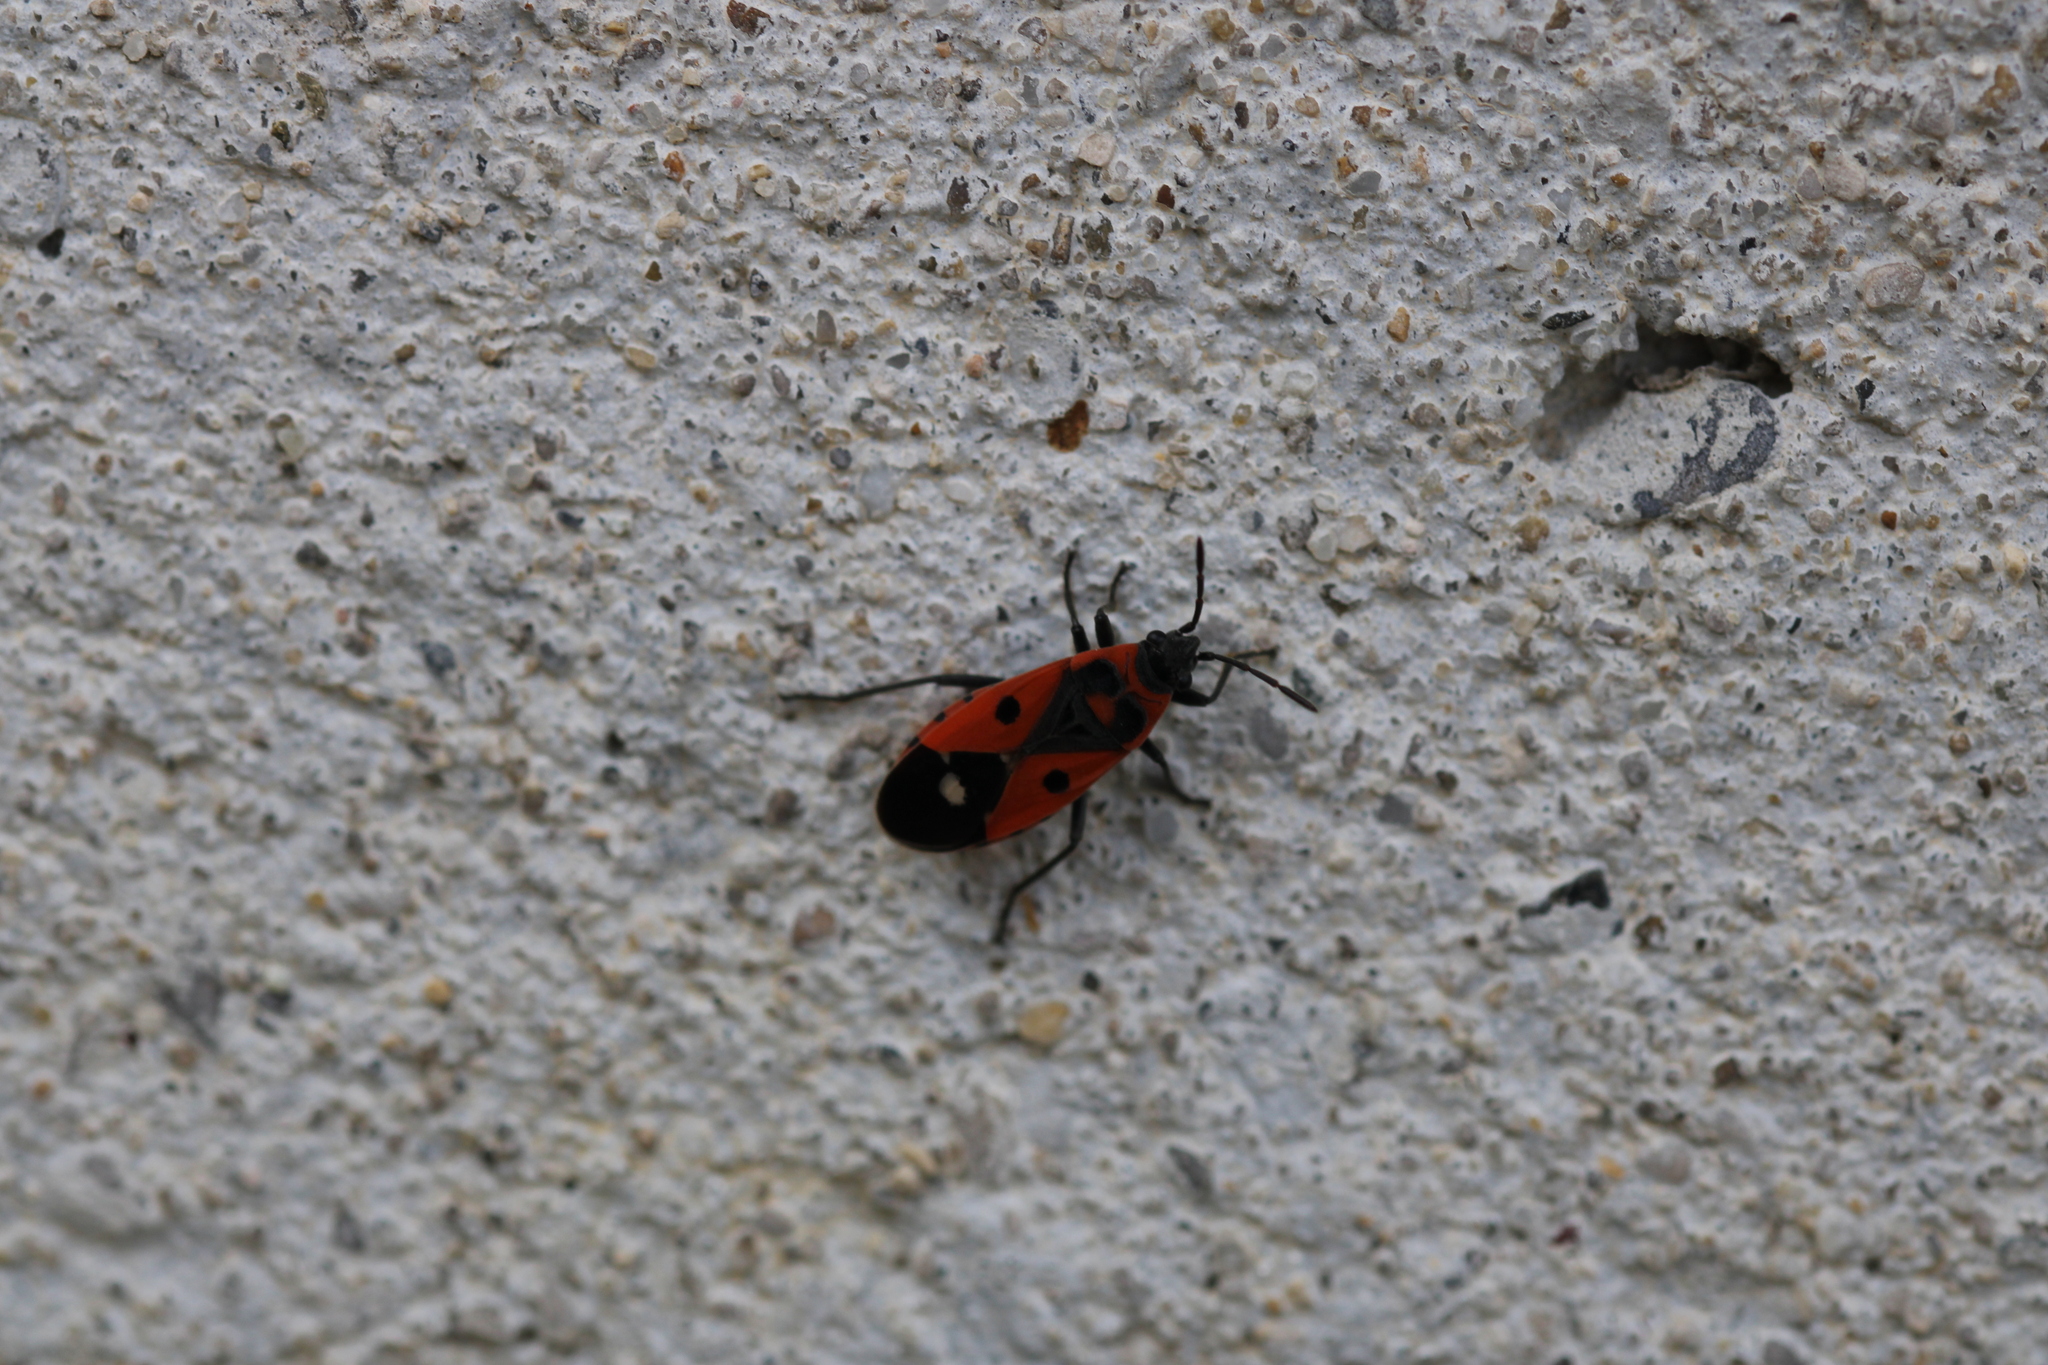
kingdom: Animalia
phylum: Arthropoda
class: Insecta
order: Hemiptera
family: Lygaeidae
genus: Melanocoryphus
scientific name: Melanocoryphus albomaculatus
